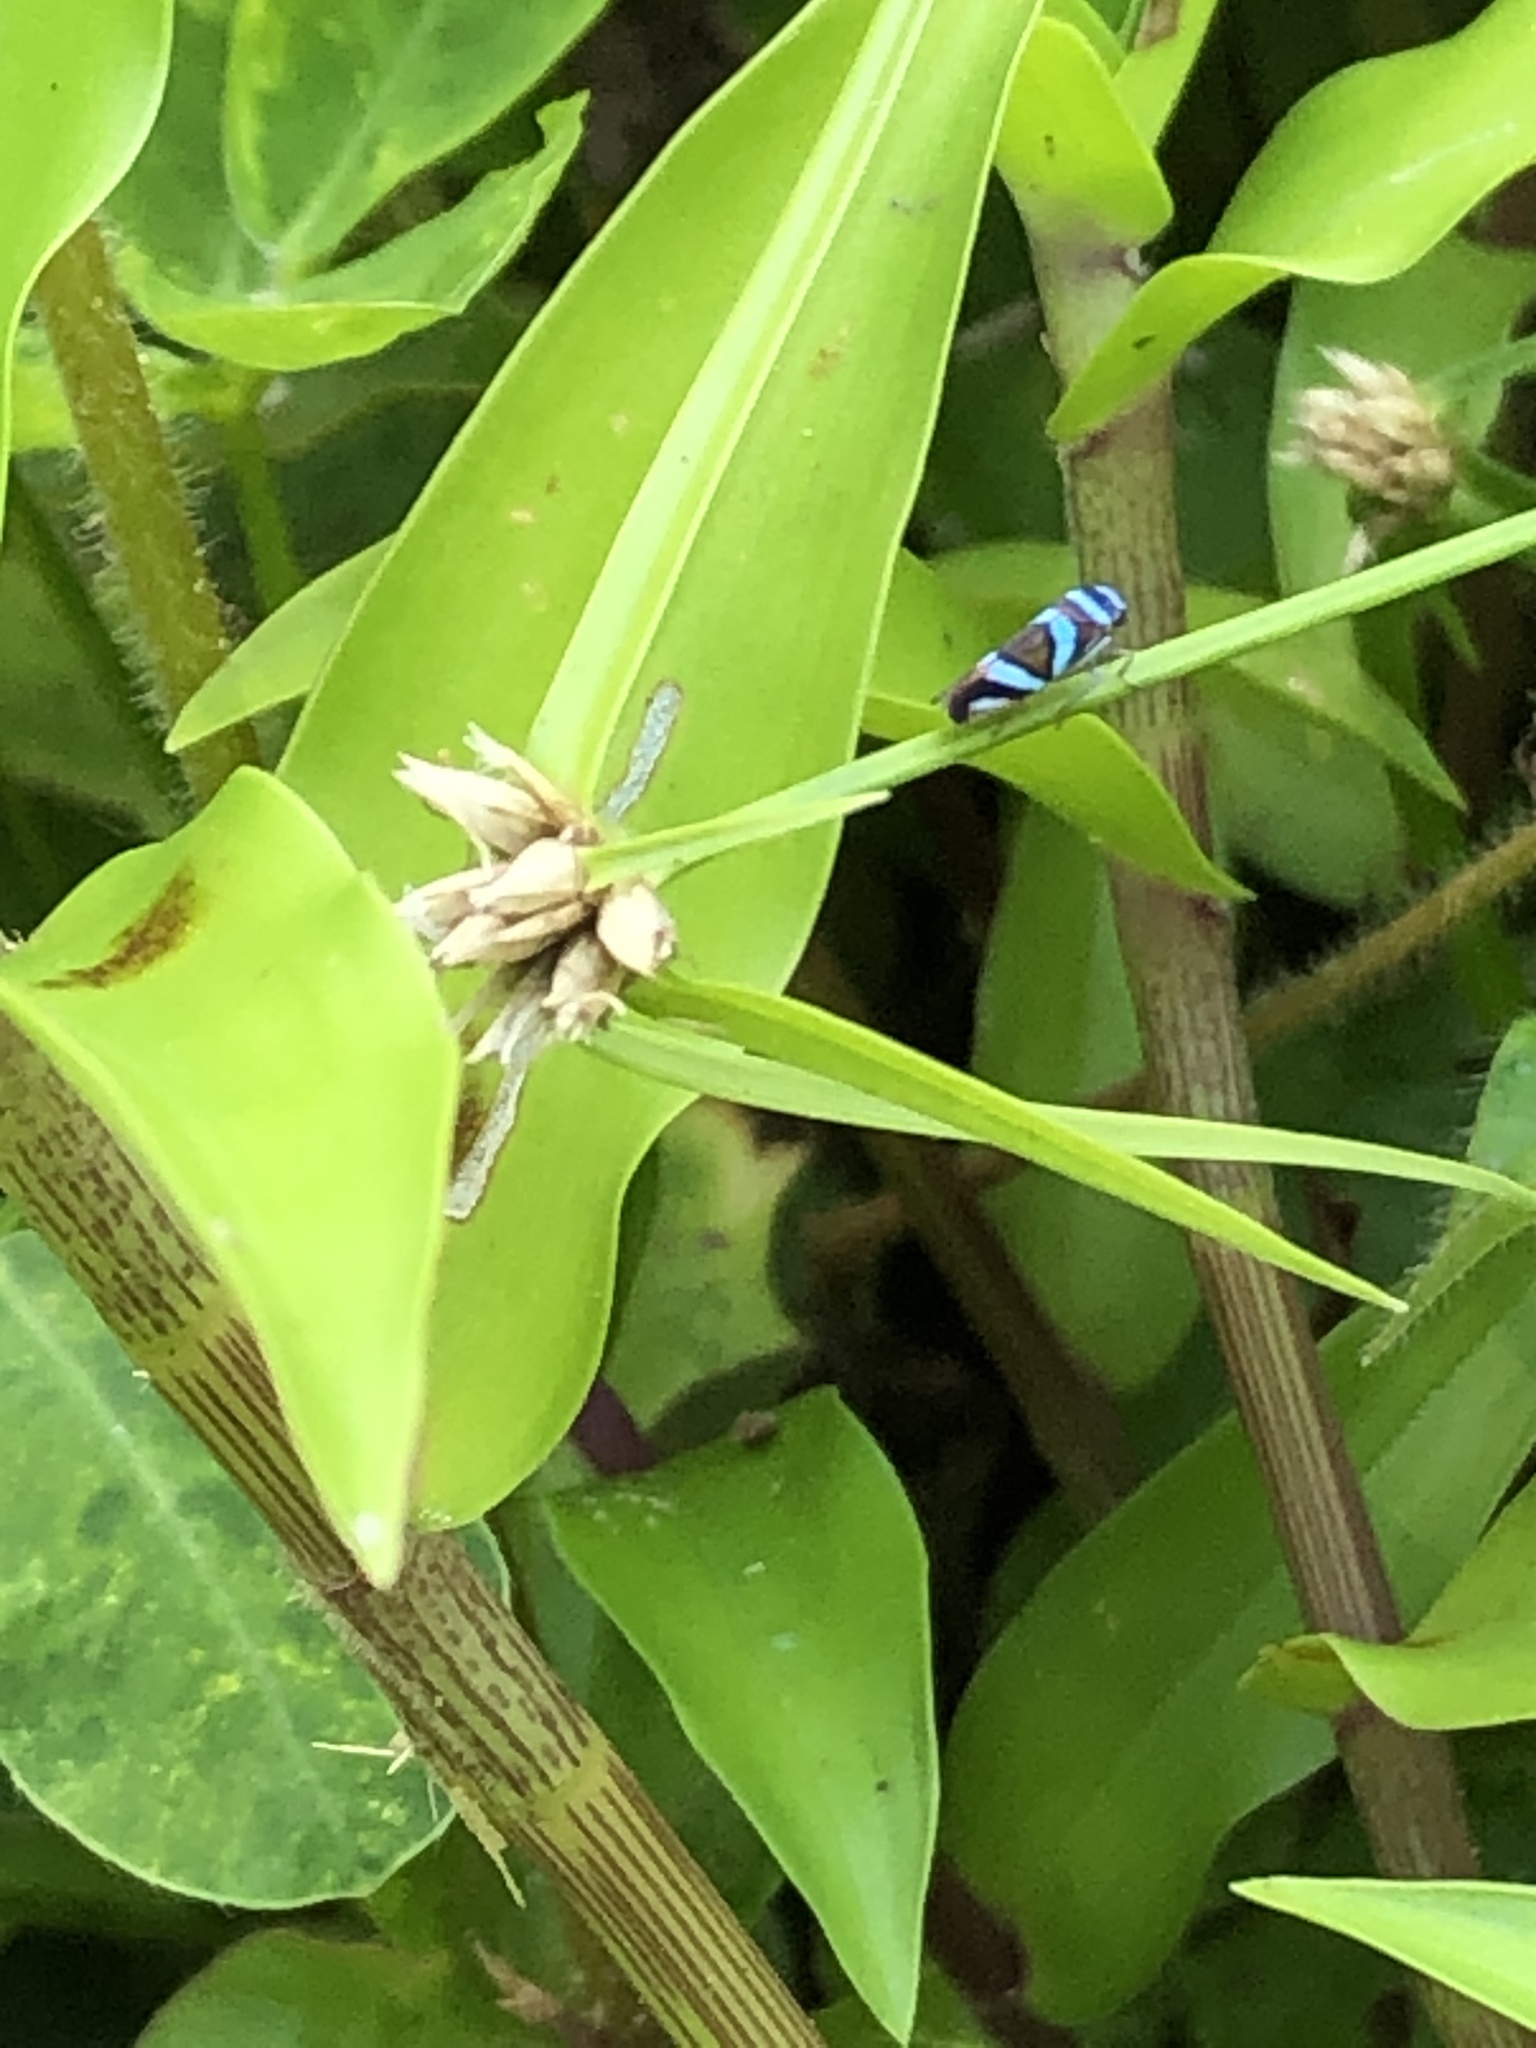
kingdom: Animalia
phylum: Arthropoda
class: Insecta
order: Hemiptera
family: Cicadellidae
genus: Macugonalia
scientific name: Macugonalia moesta
